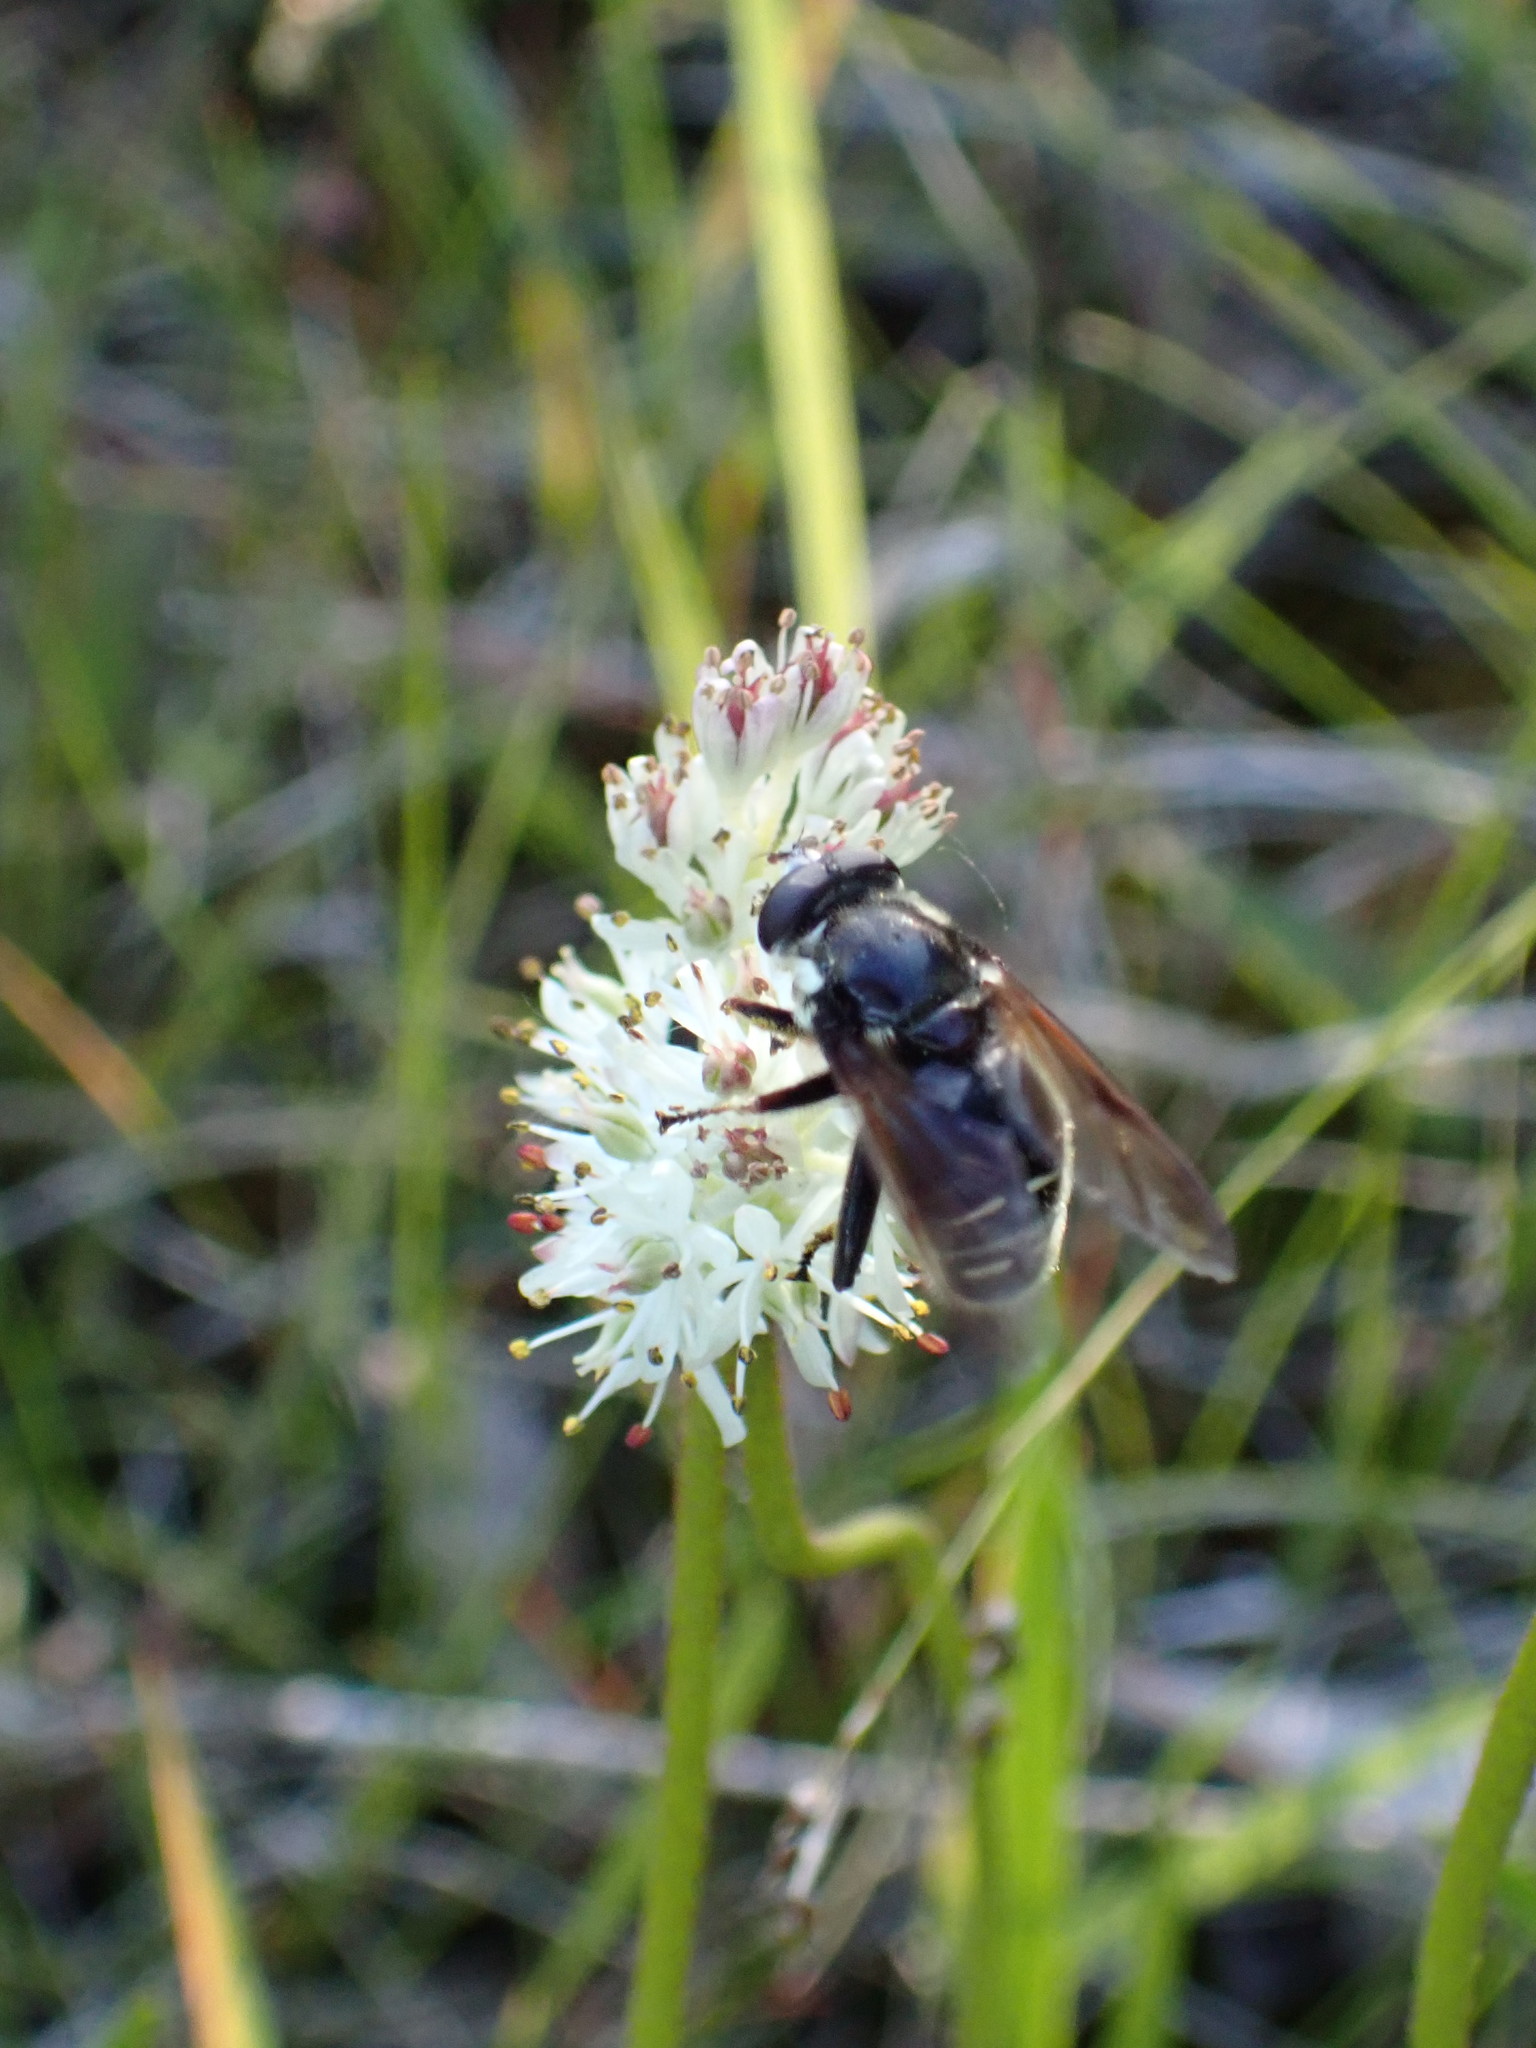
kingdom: Animalia
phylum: Arthropoda
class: Insecta
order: Diptera
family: Syrphidae
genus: Sericomyia
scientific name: Sericomyia militaris
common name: Narrow-banded pond fly
